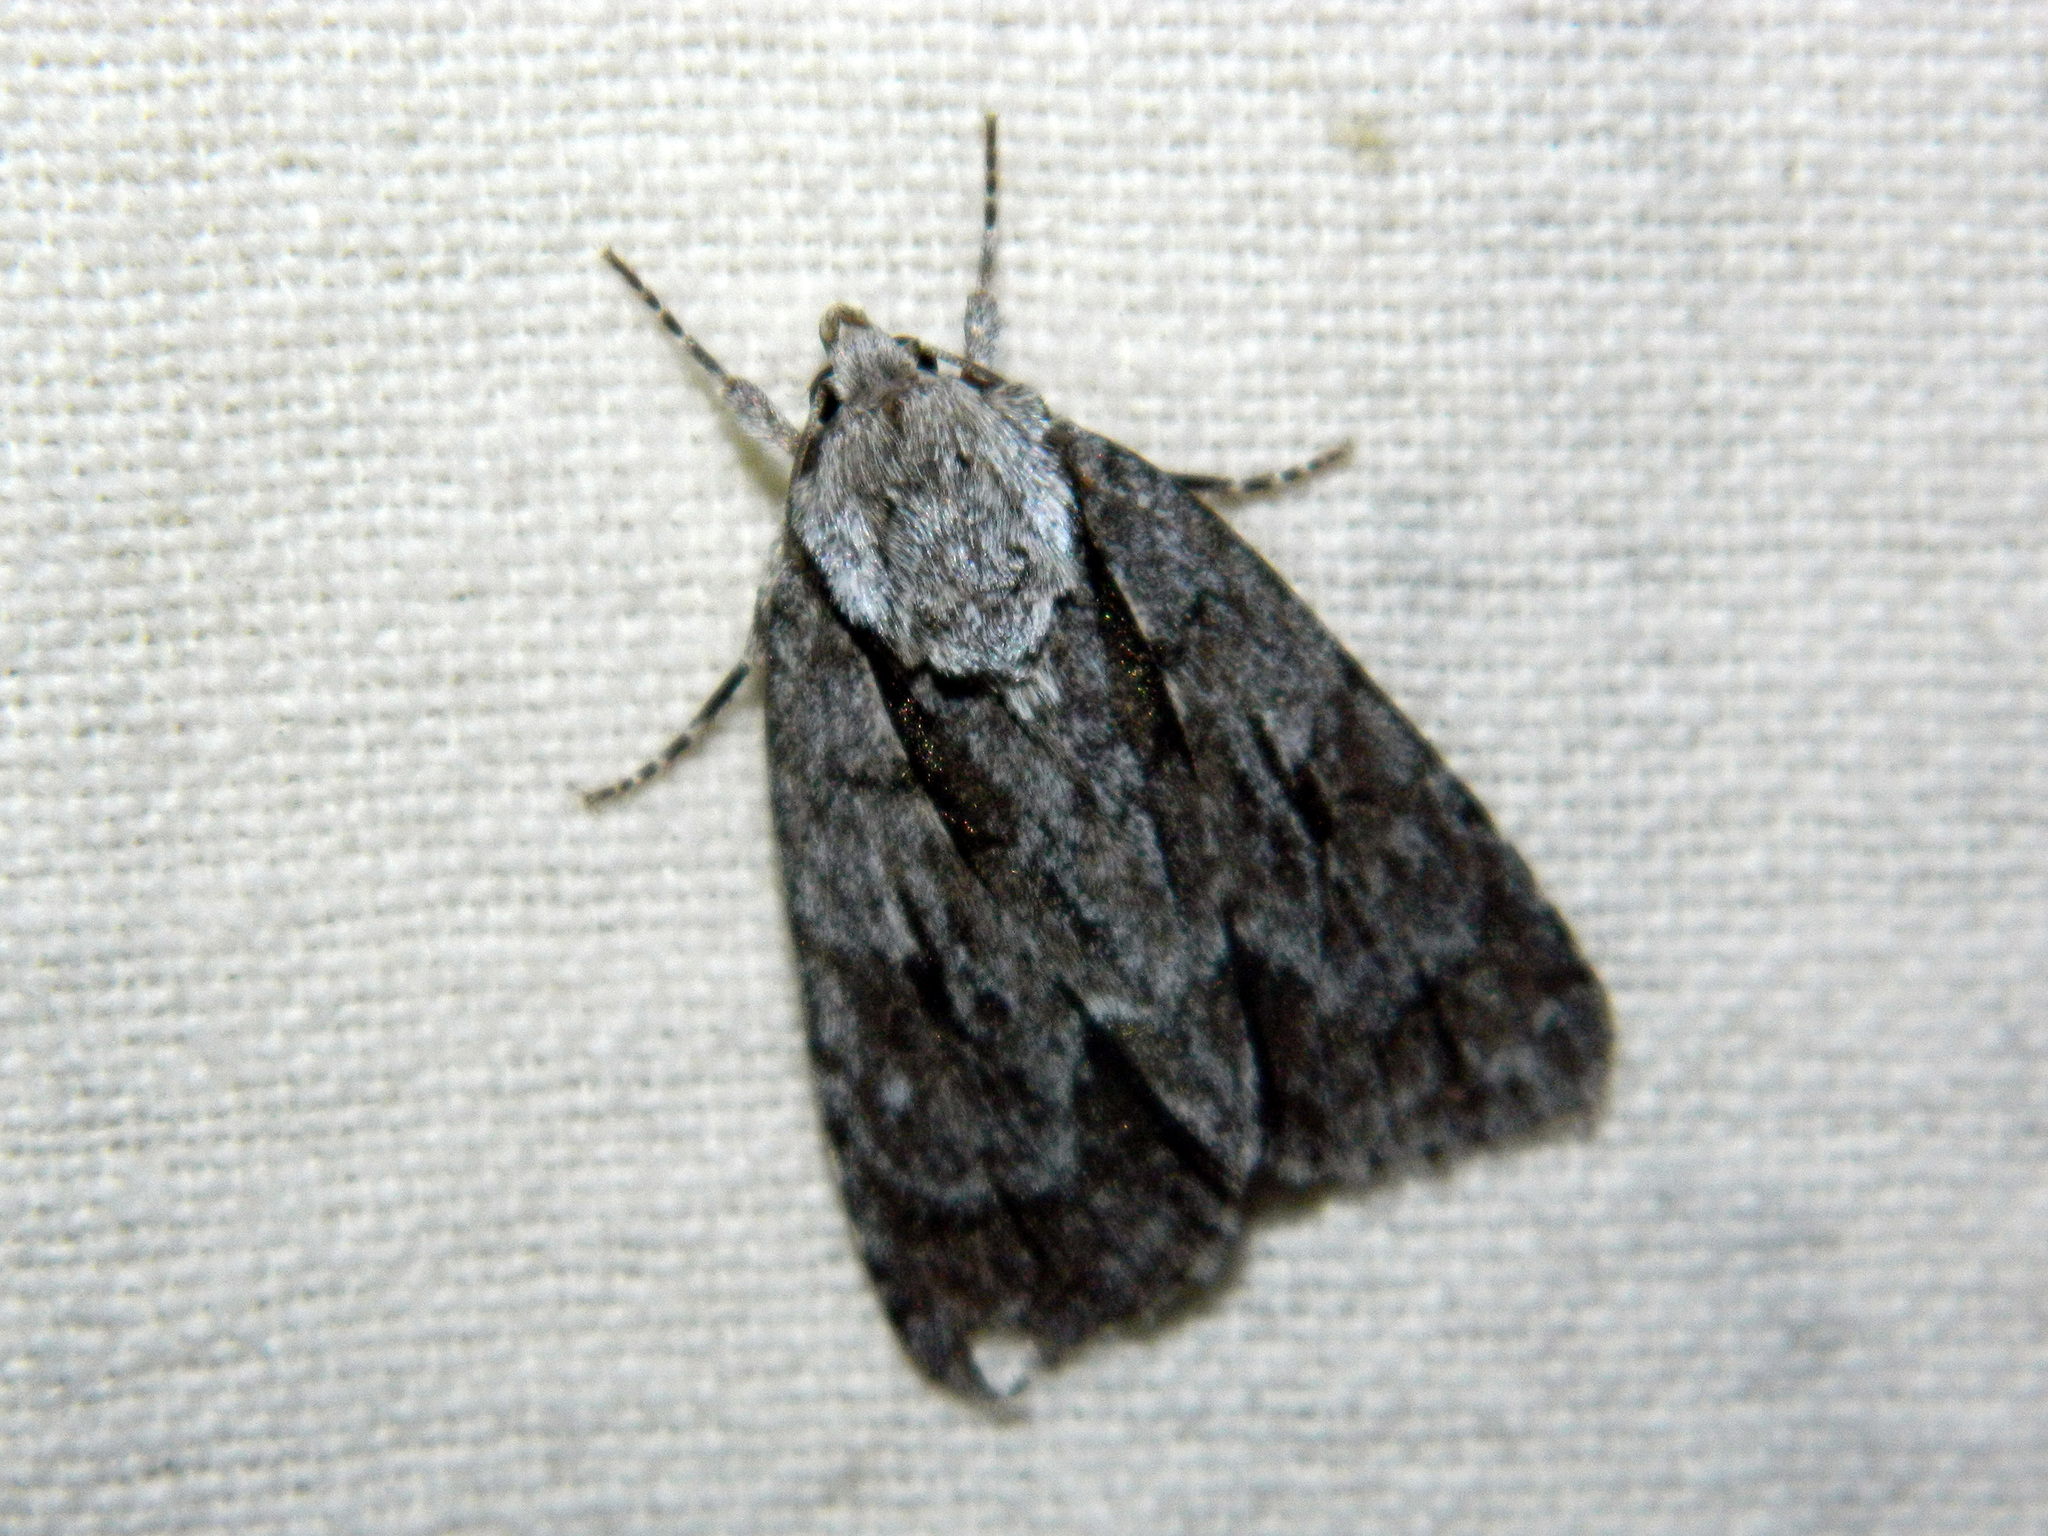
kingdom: Animalia
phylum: Arthropoda
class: Insecta
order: Lepidoptera
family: Noctuidae
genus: Acronicta
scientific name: Acronicta hasta
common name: Cherry dagger
